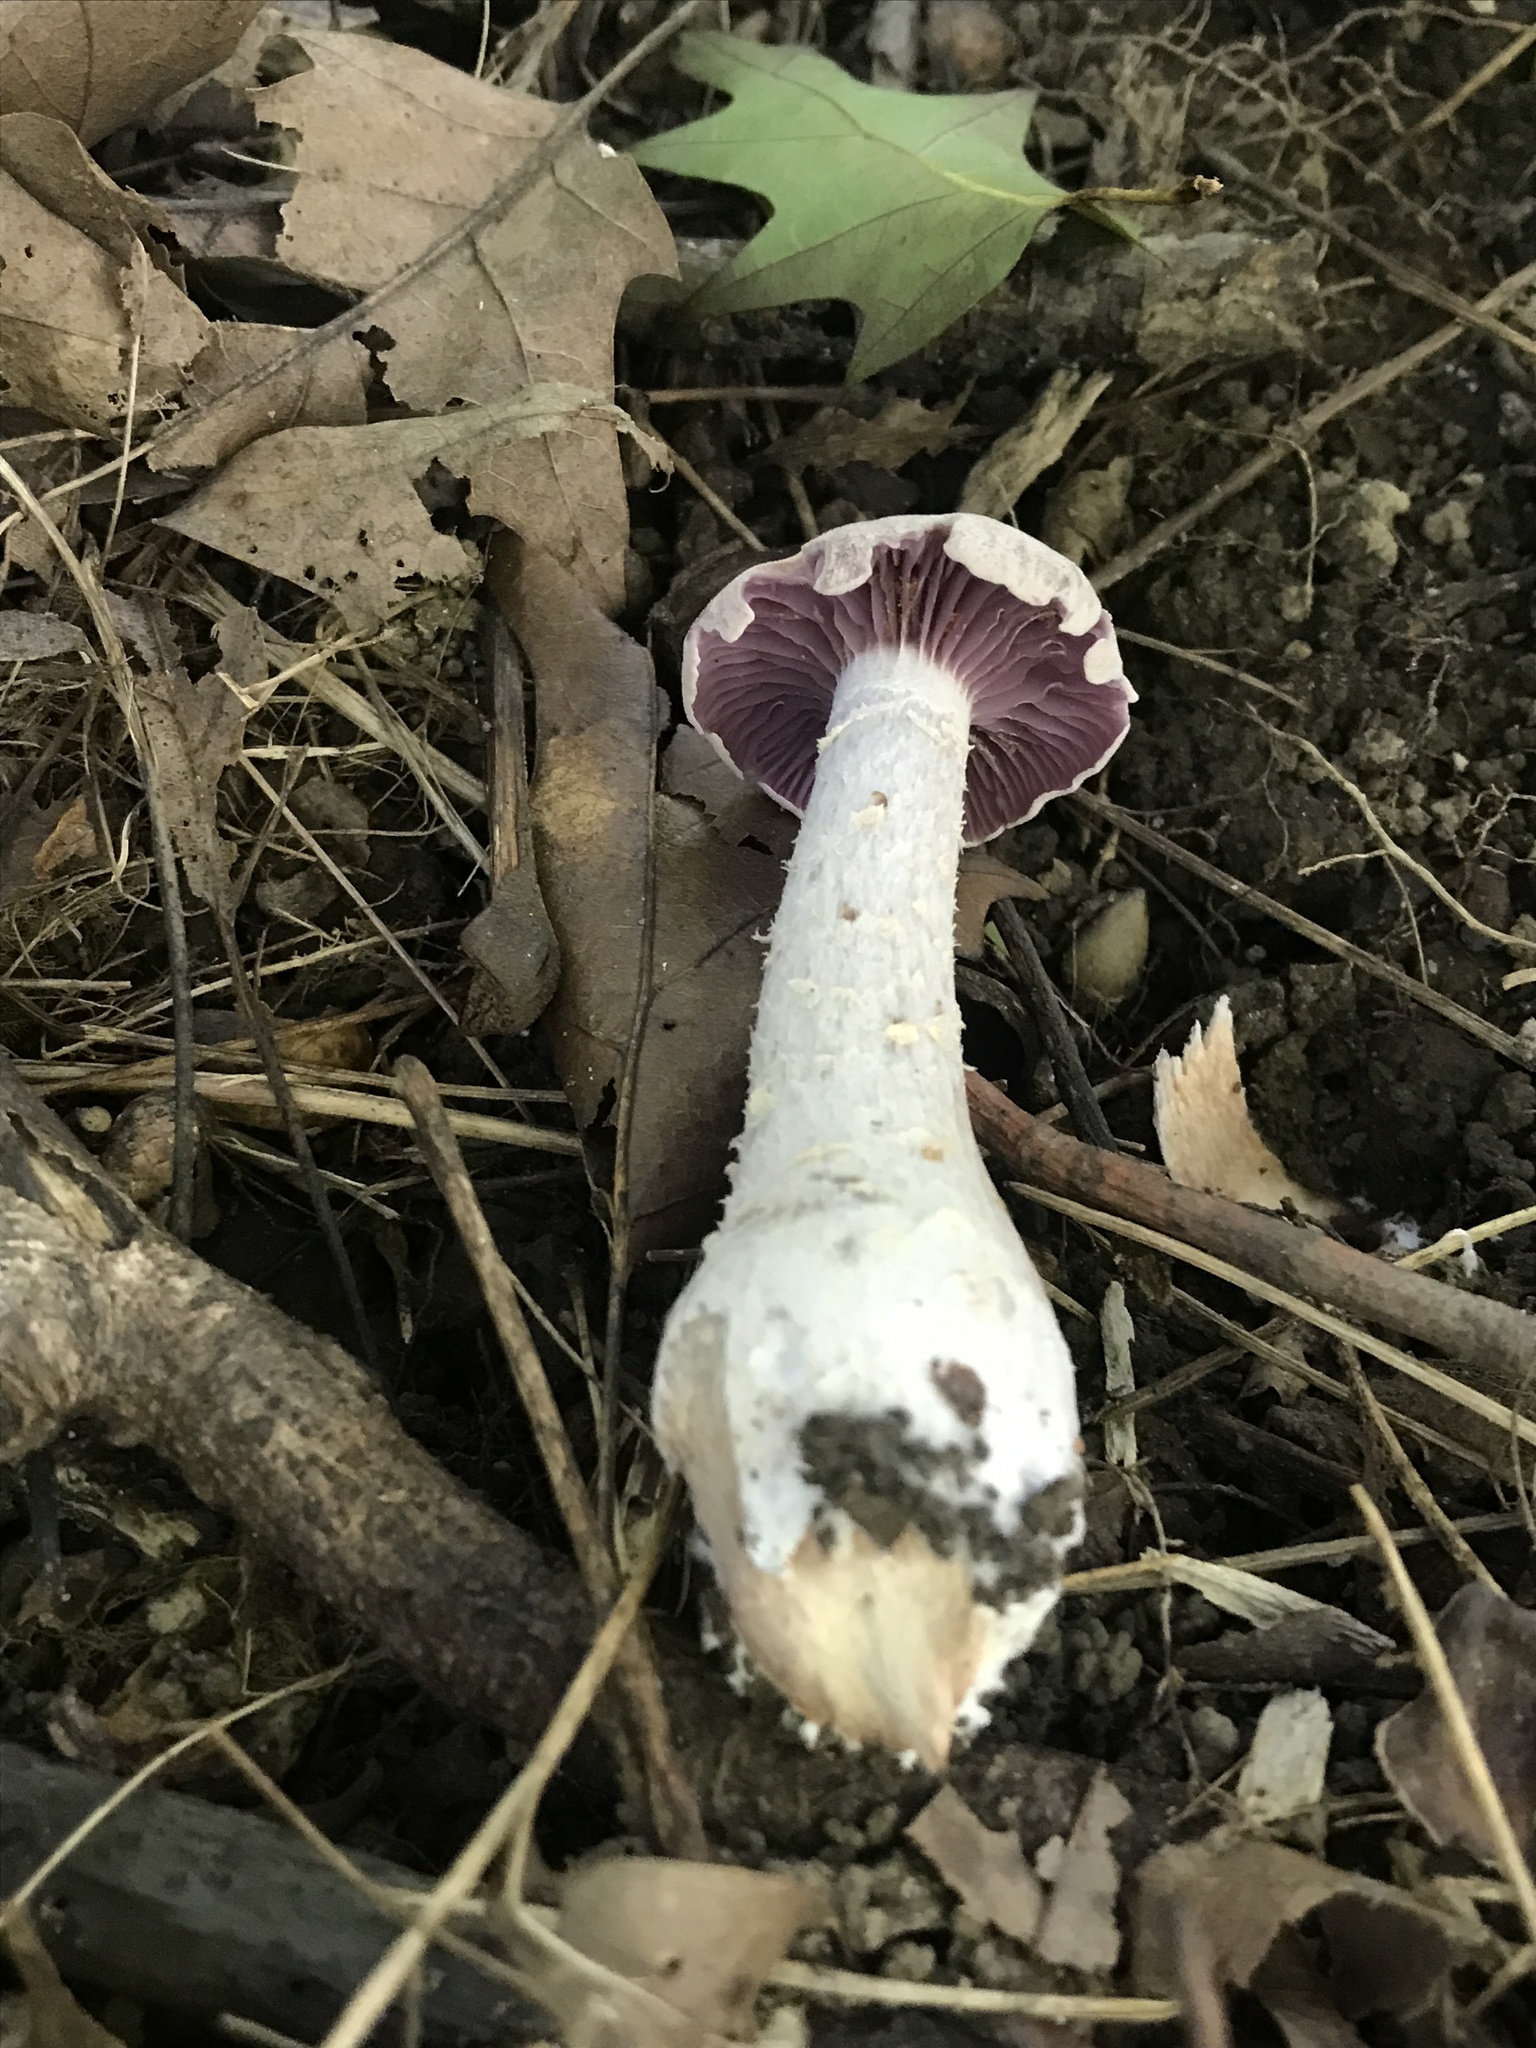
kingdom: Fungi
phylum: Basidiomycota
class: Agaricomycetes
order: Agaricales
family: Hydnangiaceae
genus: Laccaria
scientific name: Laccaria ochropurpurea
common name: Purple laccaria
